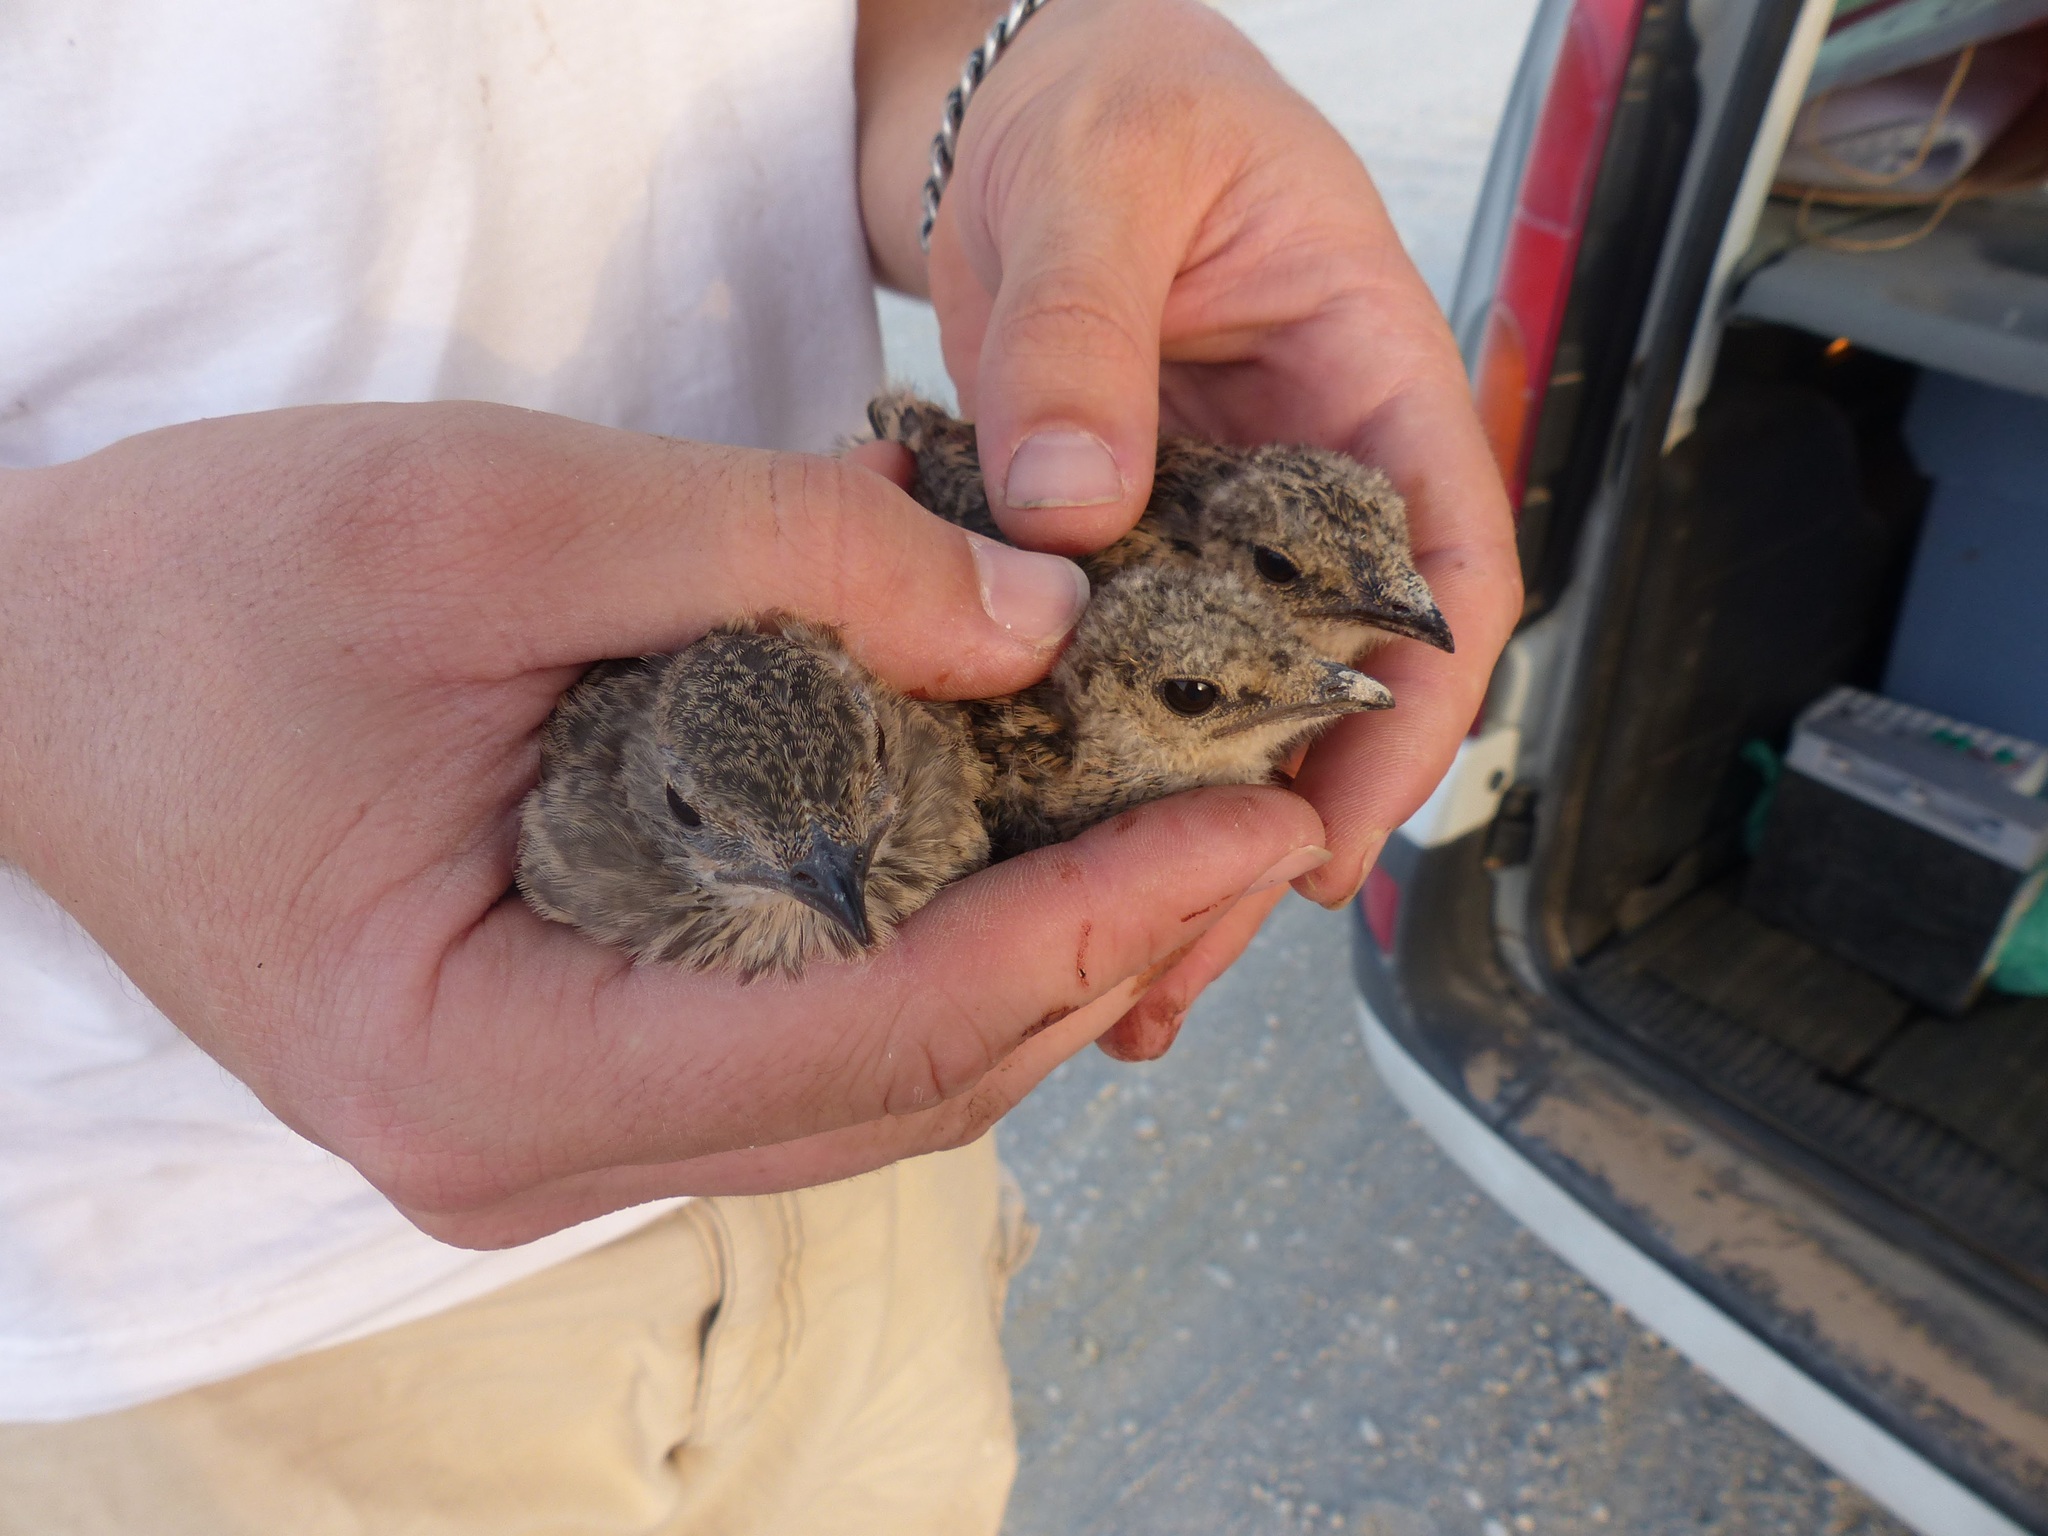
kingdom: Animalia
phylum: Chordata
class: Aves
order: Charadriiformes
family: Glareolidae
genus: Glareola
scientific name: Glareola pratincola
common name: Collared pratincole
